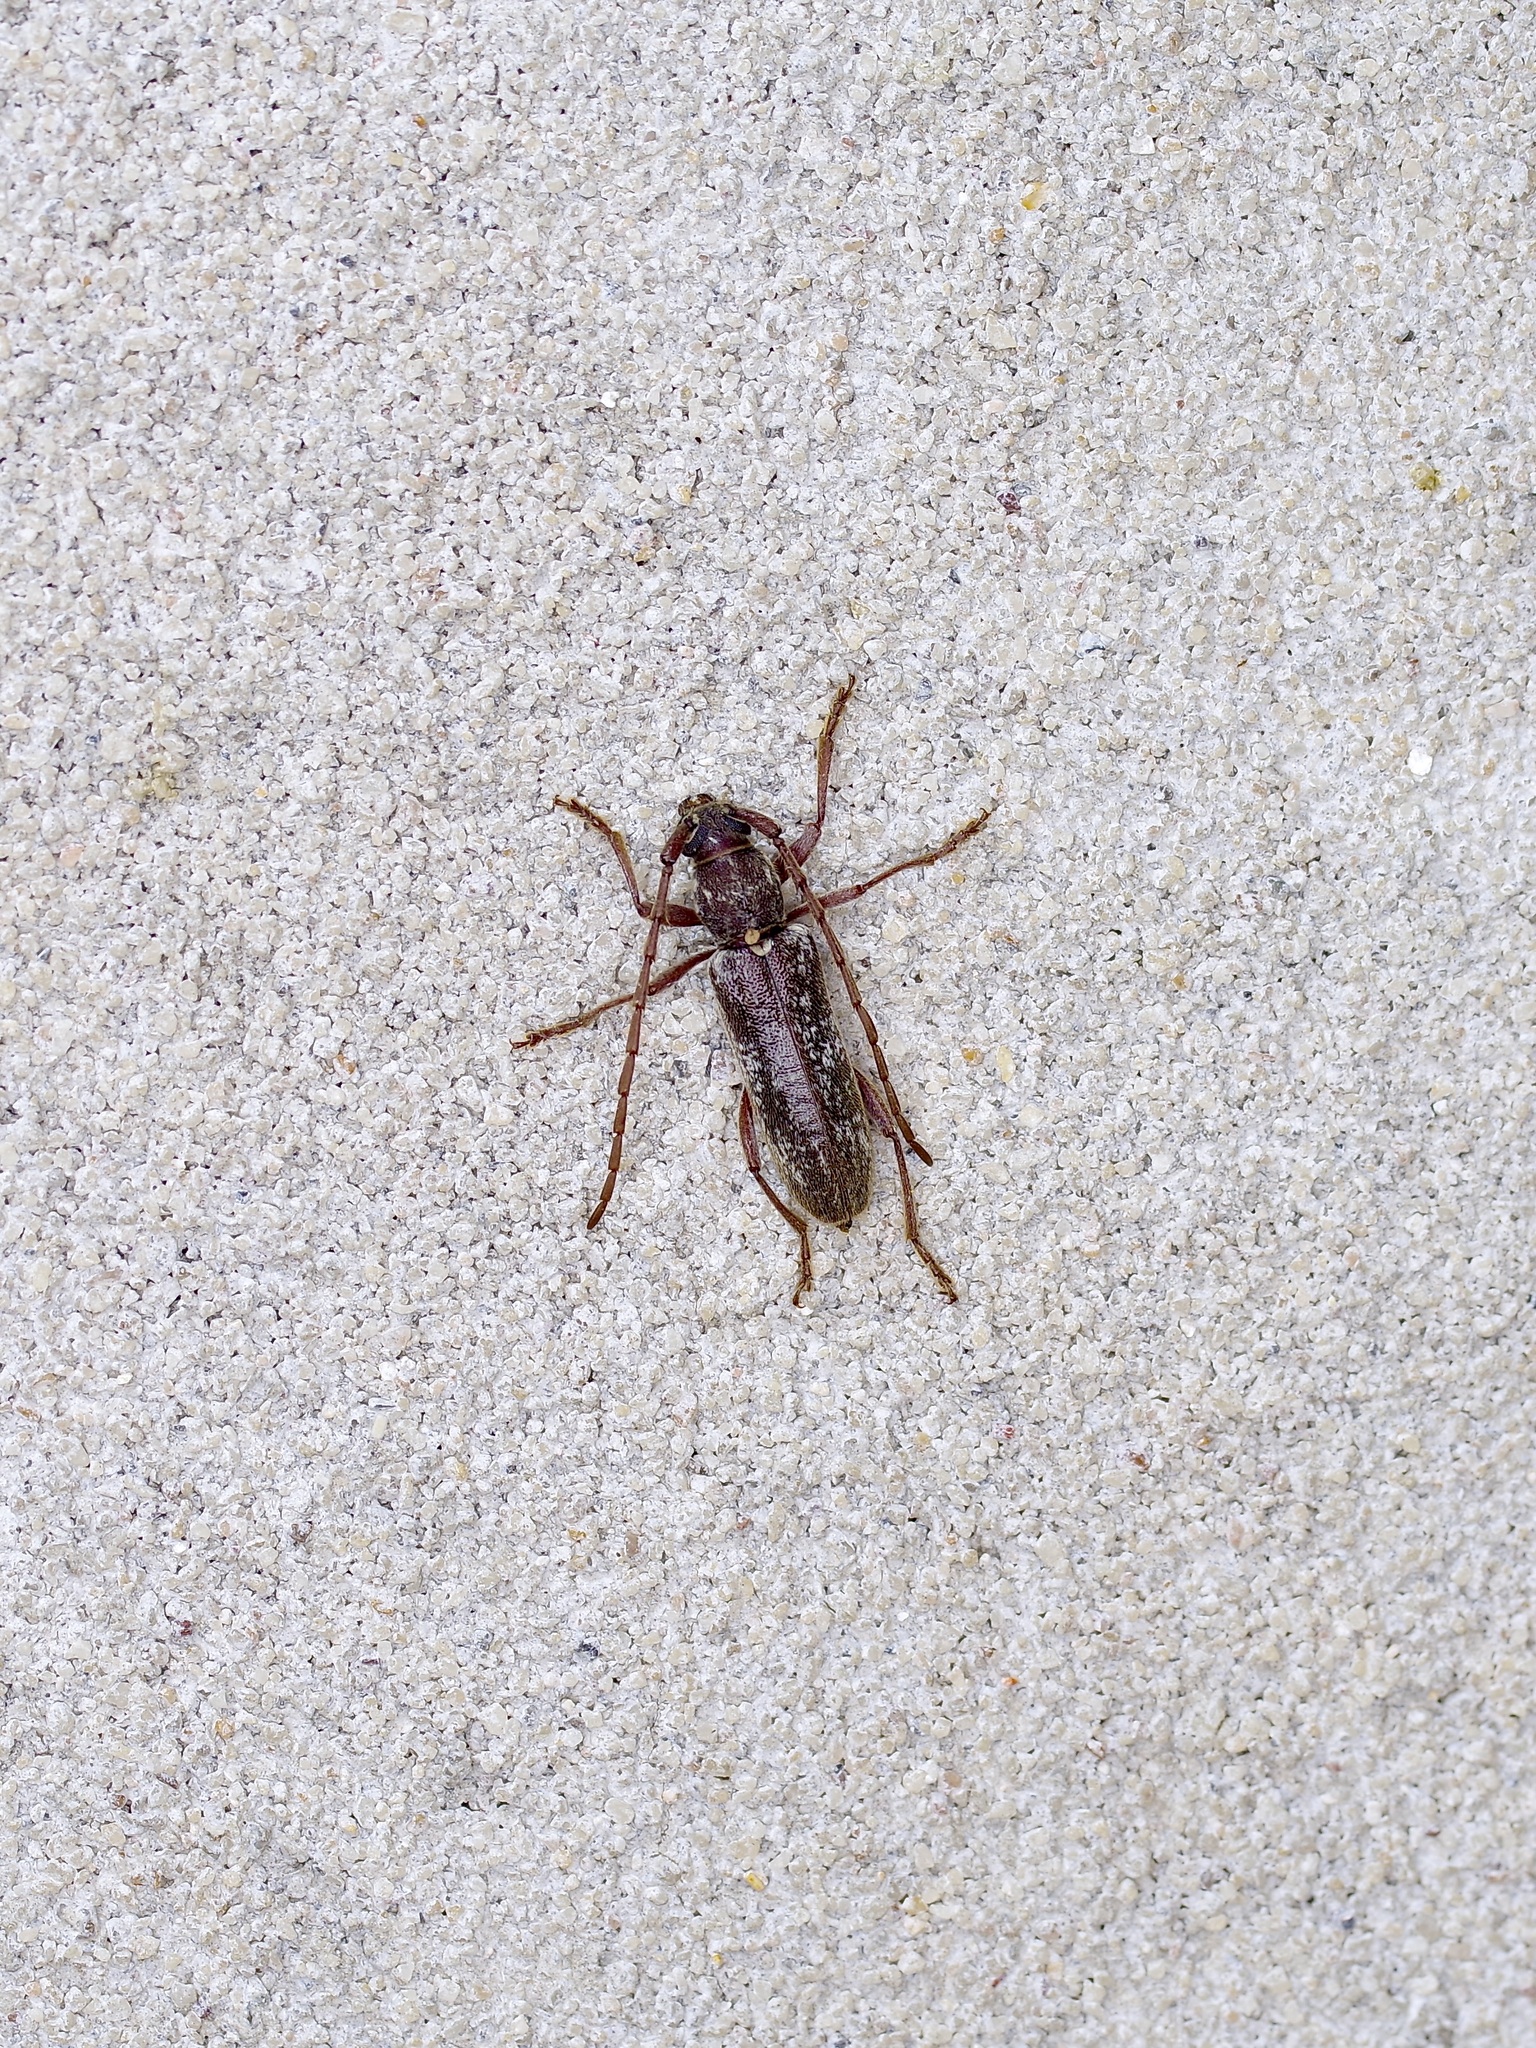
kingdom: Animalia
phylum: Arthropoda
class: Insecta
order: Coleoptera
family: Cerambycidae
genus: Anelaphus
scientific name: Anelaphus subinermis
